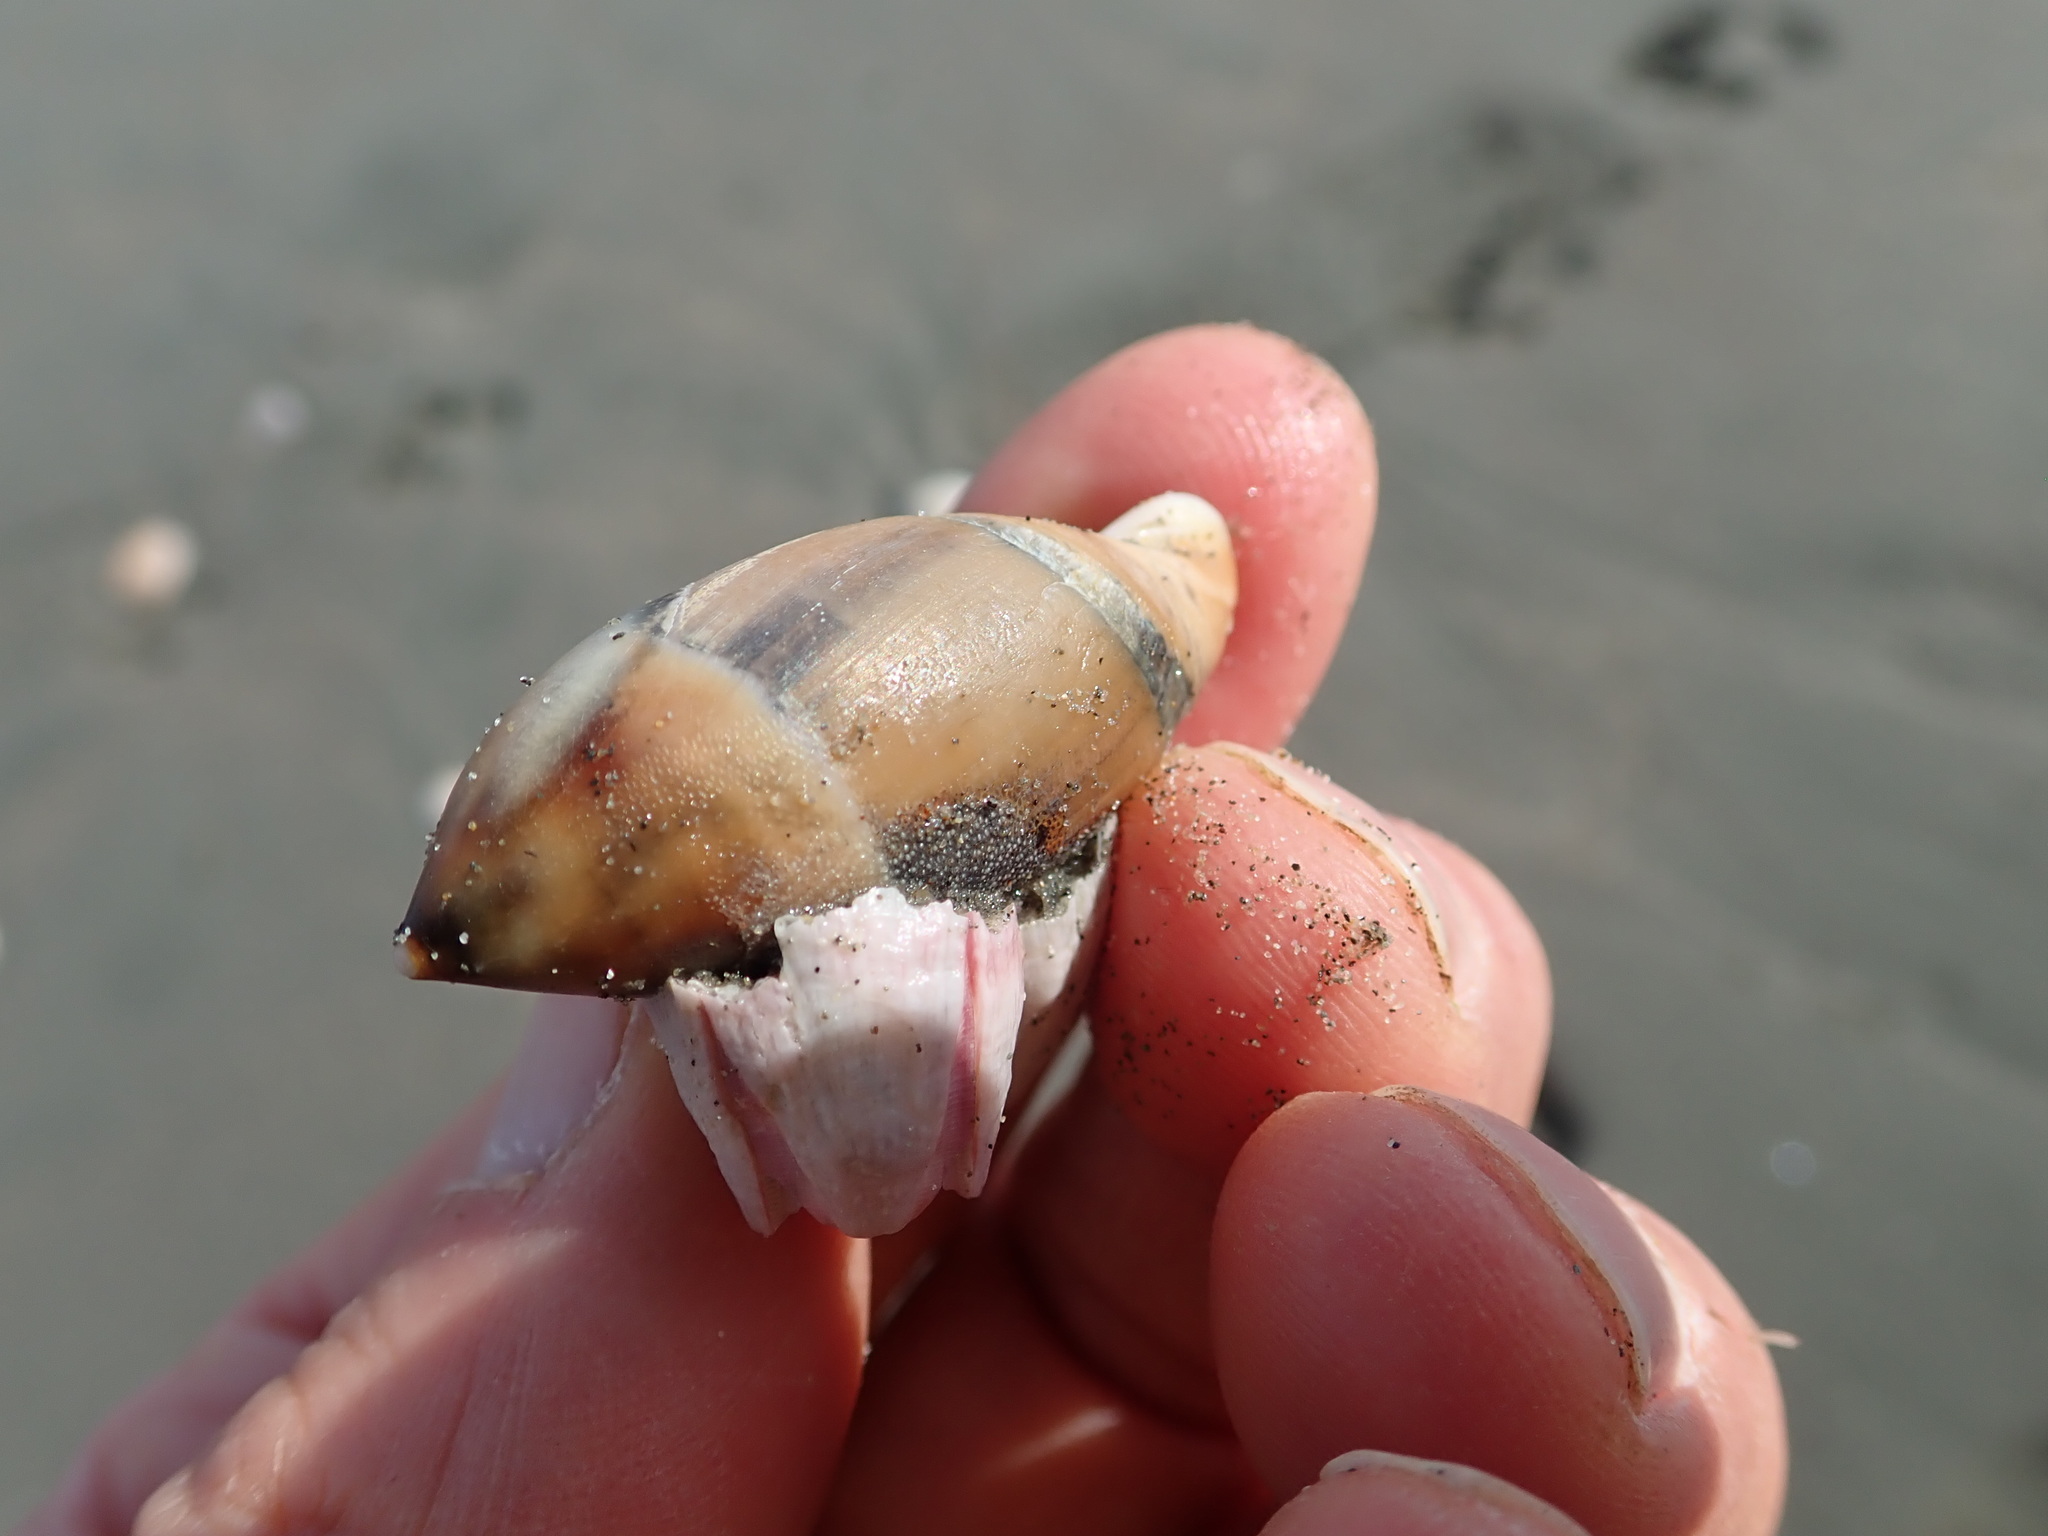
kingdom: Animalia
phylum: Mollusca
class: Gastropoda
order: Neogastropoda
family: Ancillariidae
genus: Amalda
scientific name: Amalda mucronata
